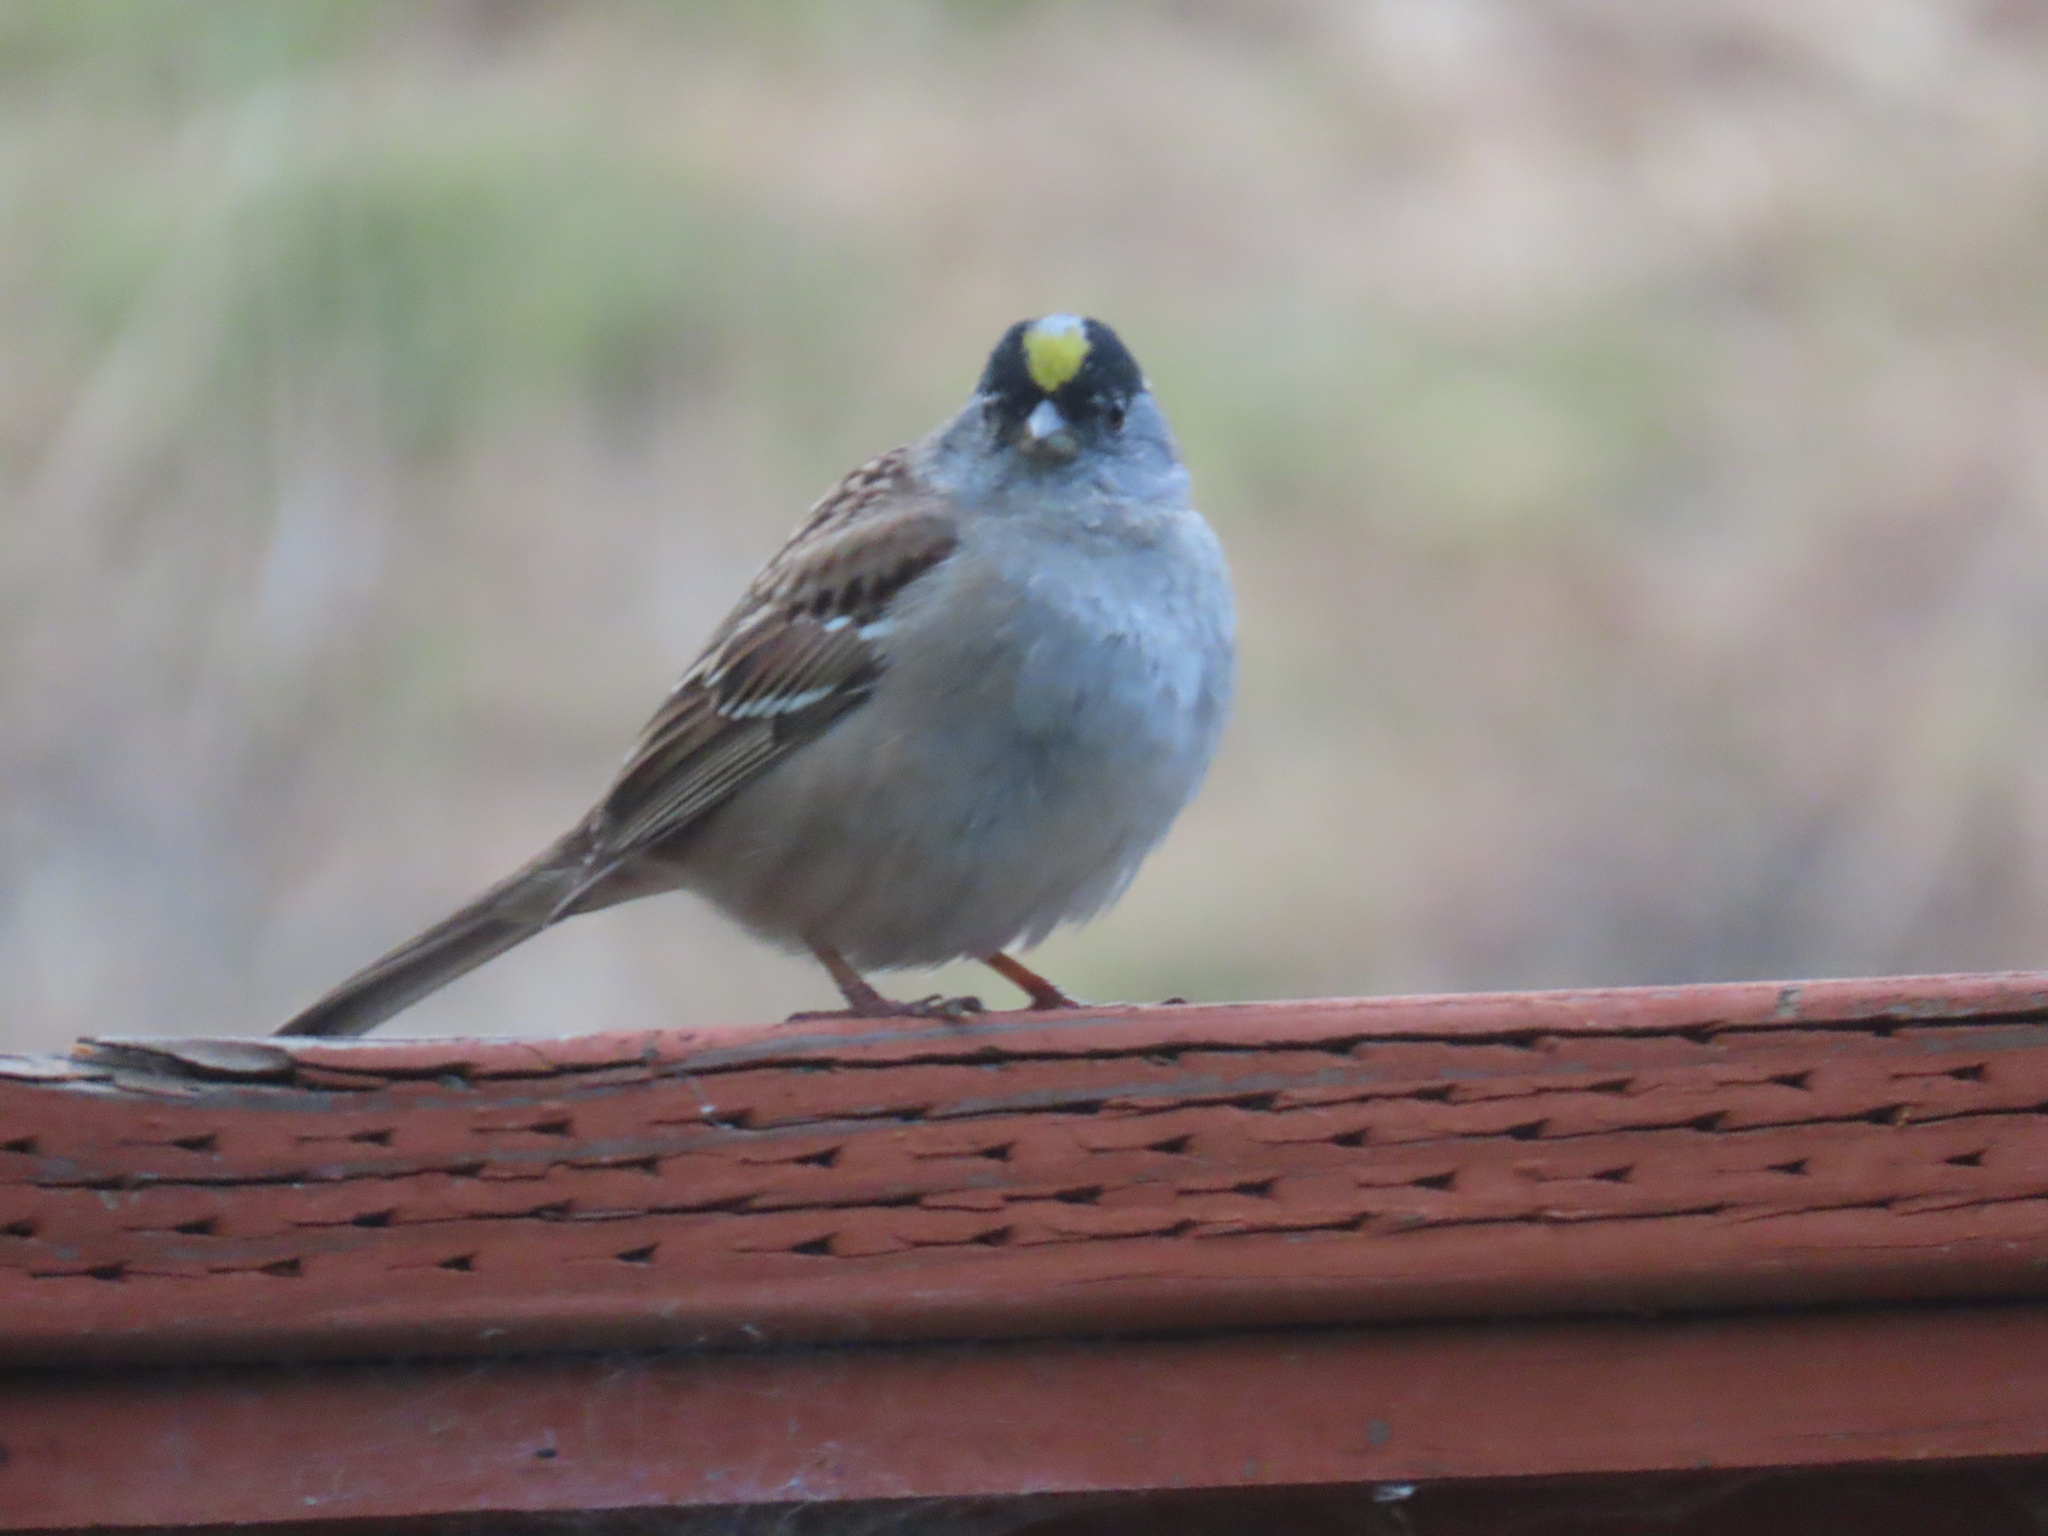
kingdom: Animalia
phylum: Chordata
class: Aves
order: Passeriformes
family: Passerellidae
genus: Zonotrichia
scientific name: Zonotrichia atricapilla
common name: Golden-crowned sparrow
